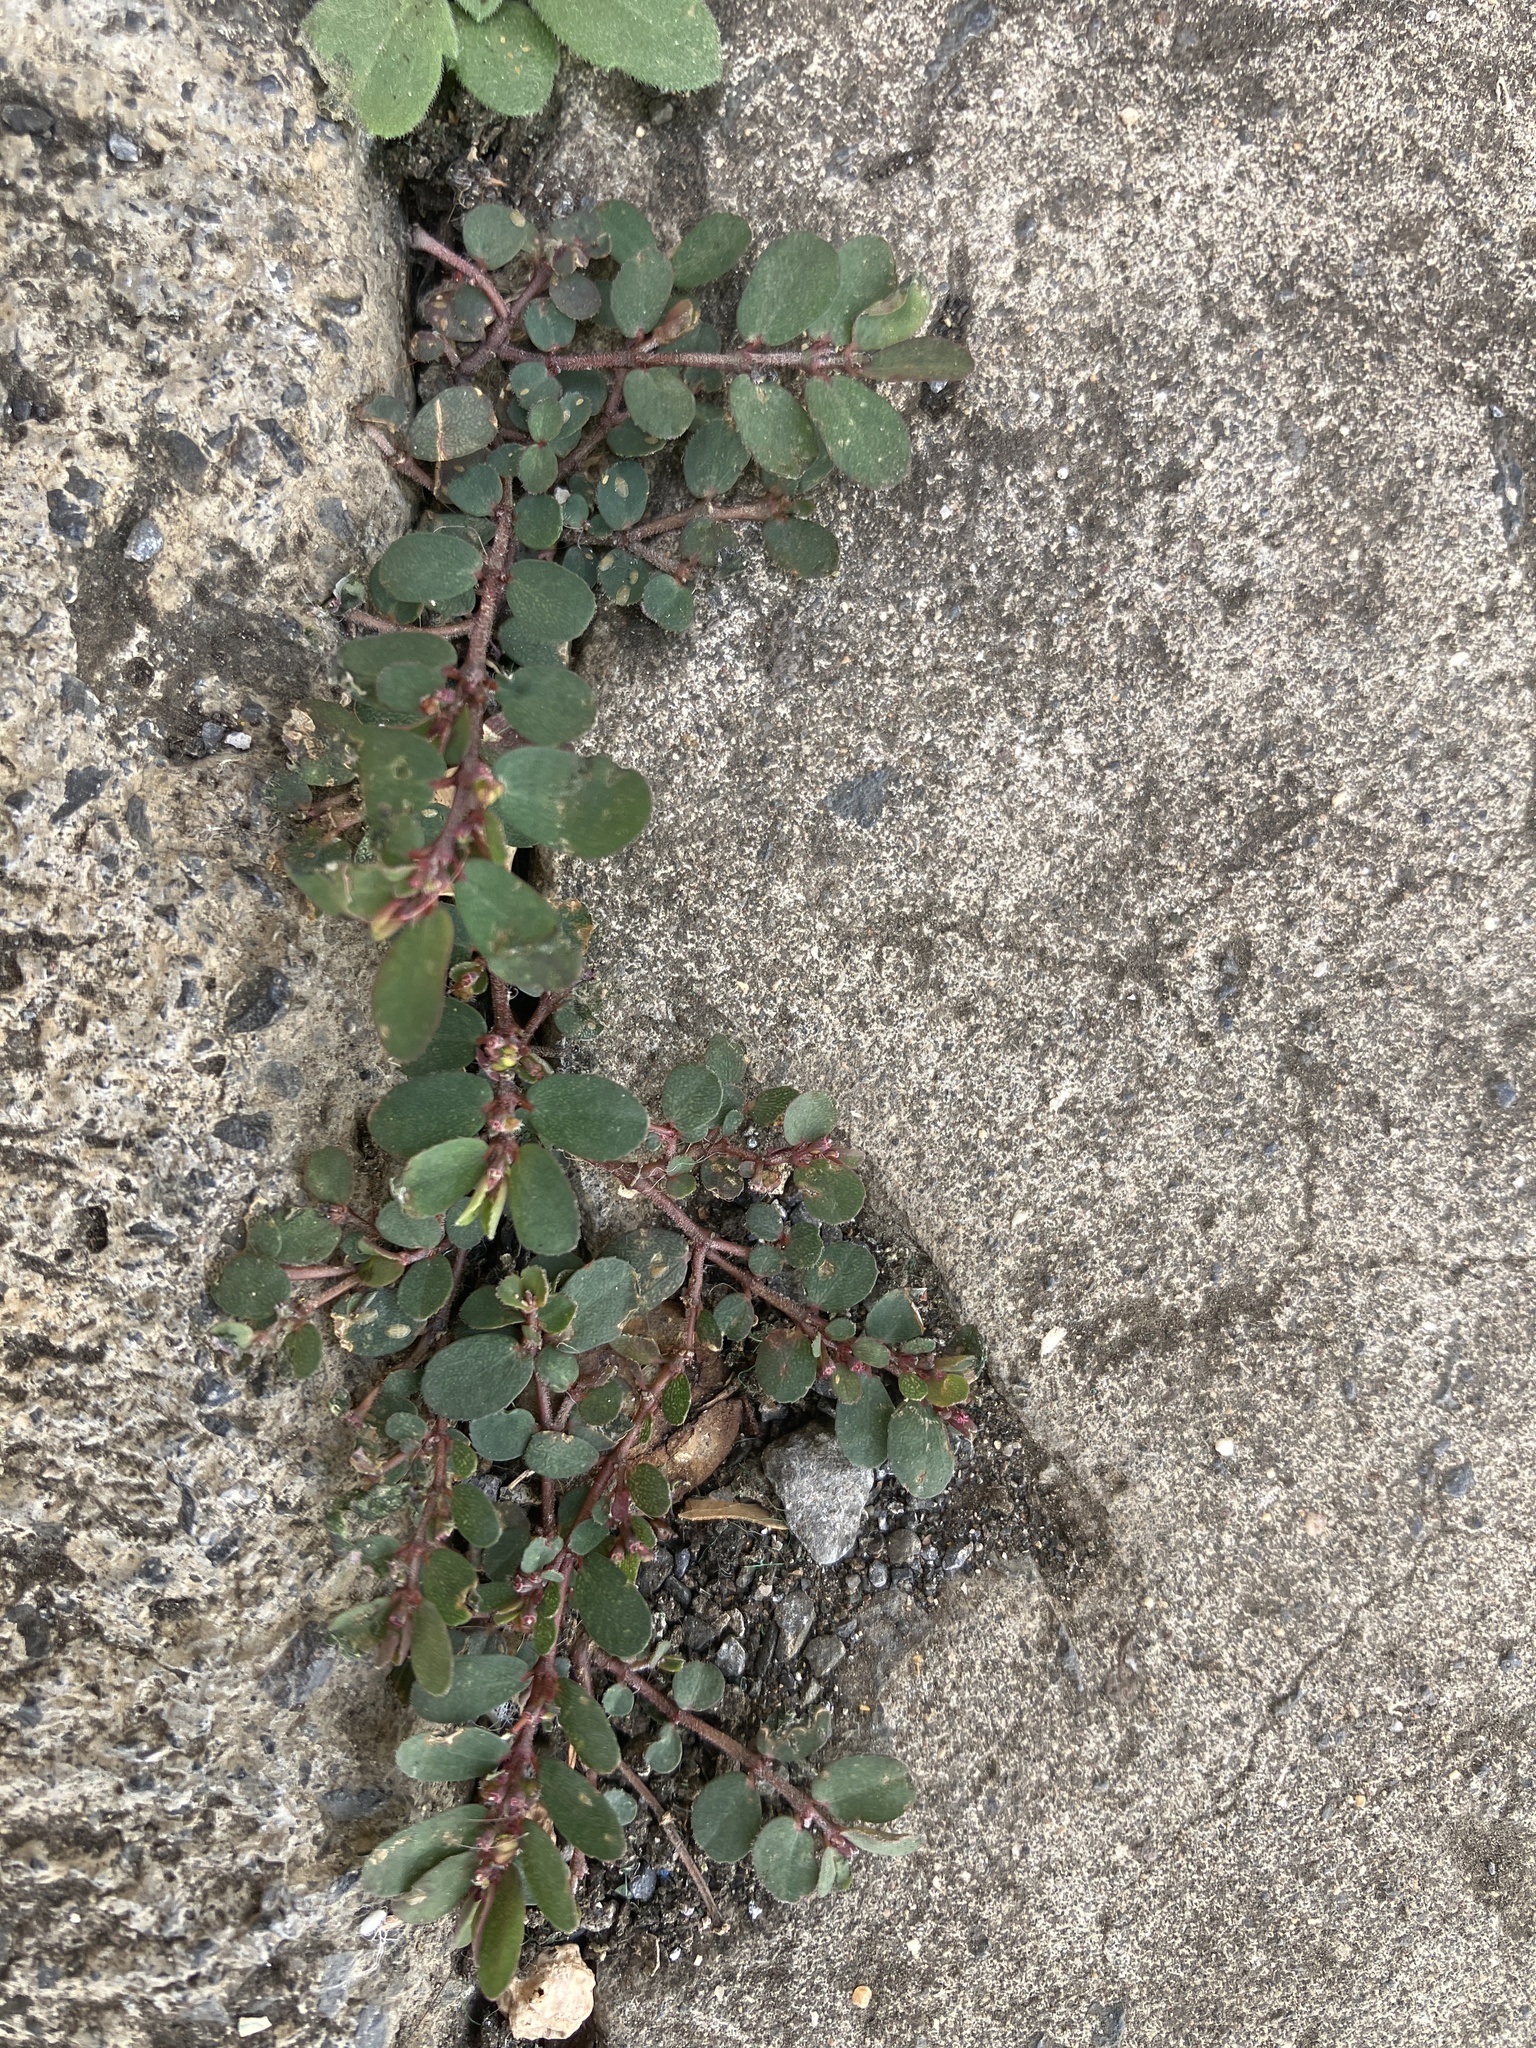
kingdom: Plantae
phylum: Tracheophyta
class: Magnoliopsida
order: Malpighiales
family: Euphorbiaceae
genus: Euphorbia
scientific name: Euphorbia prostrata
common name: Prostrate sandmat
